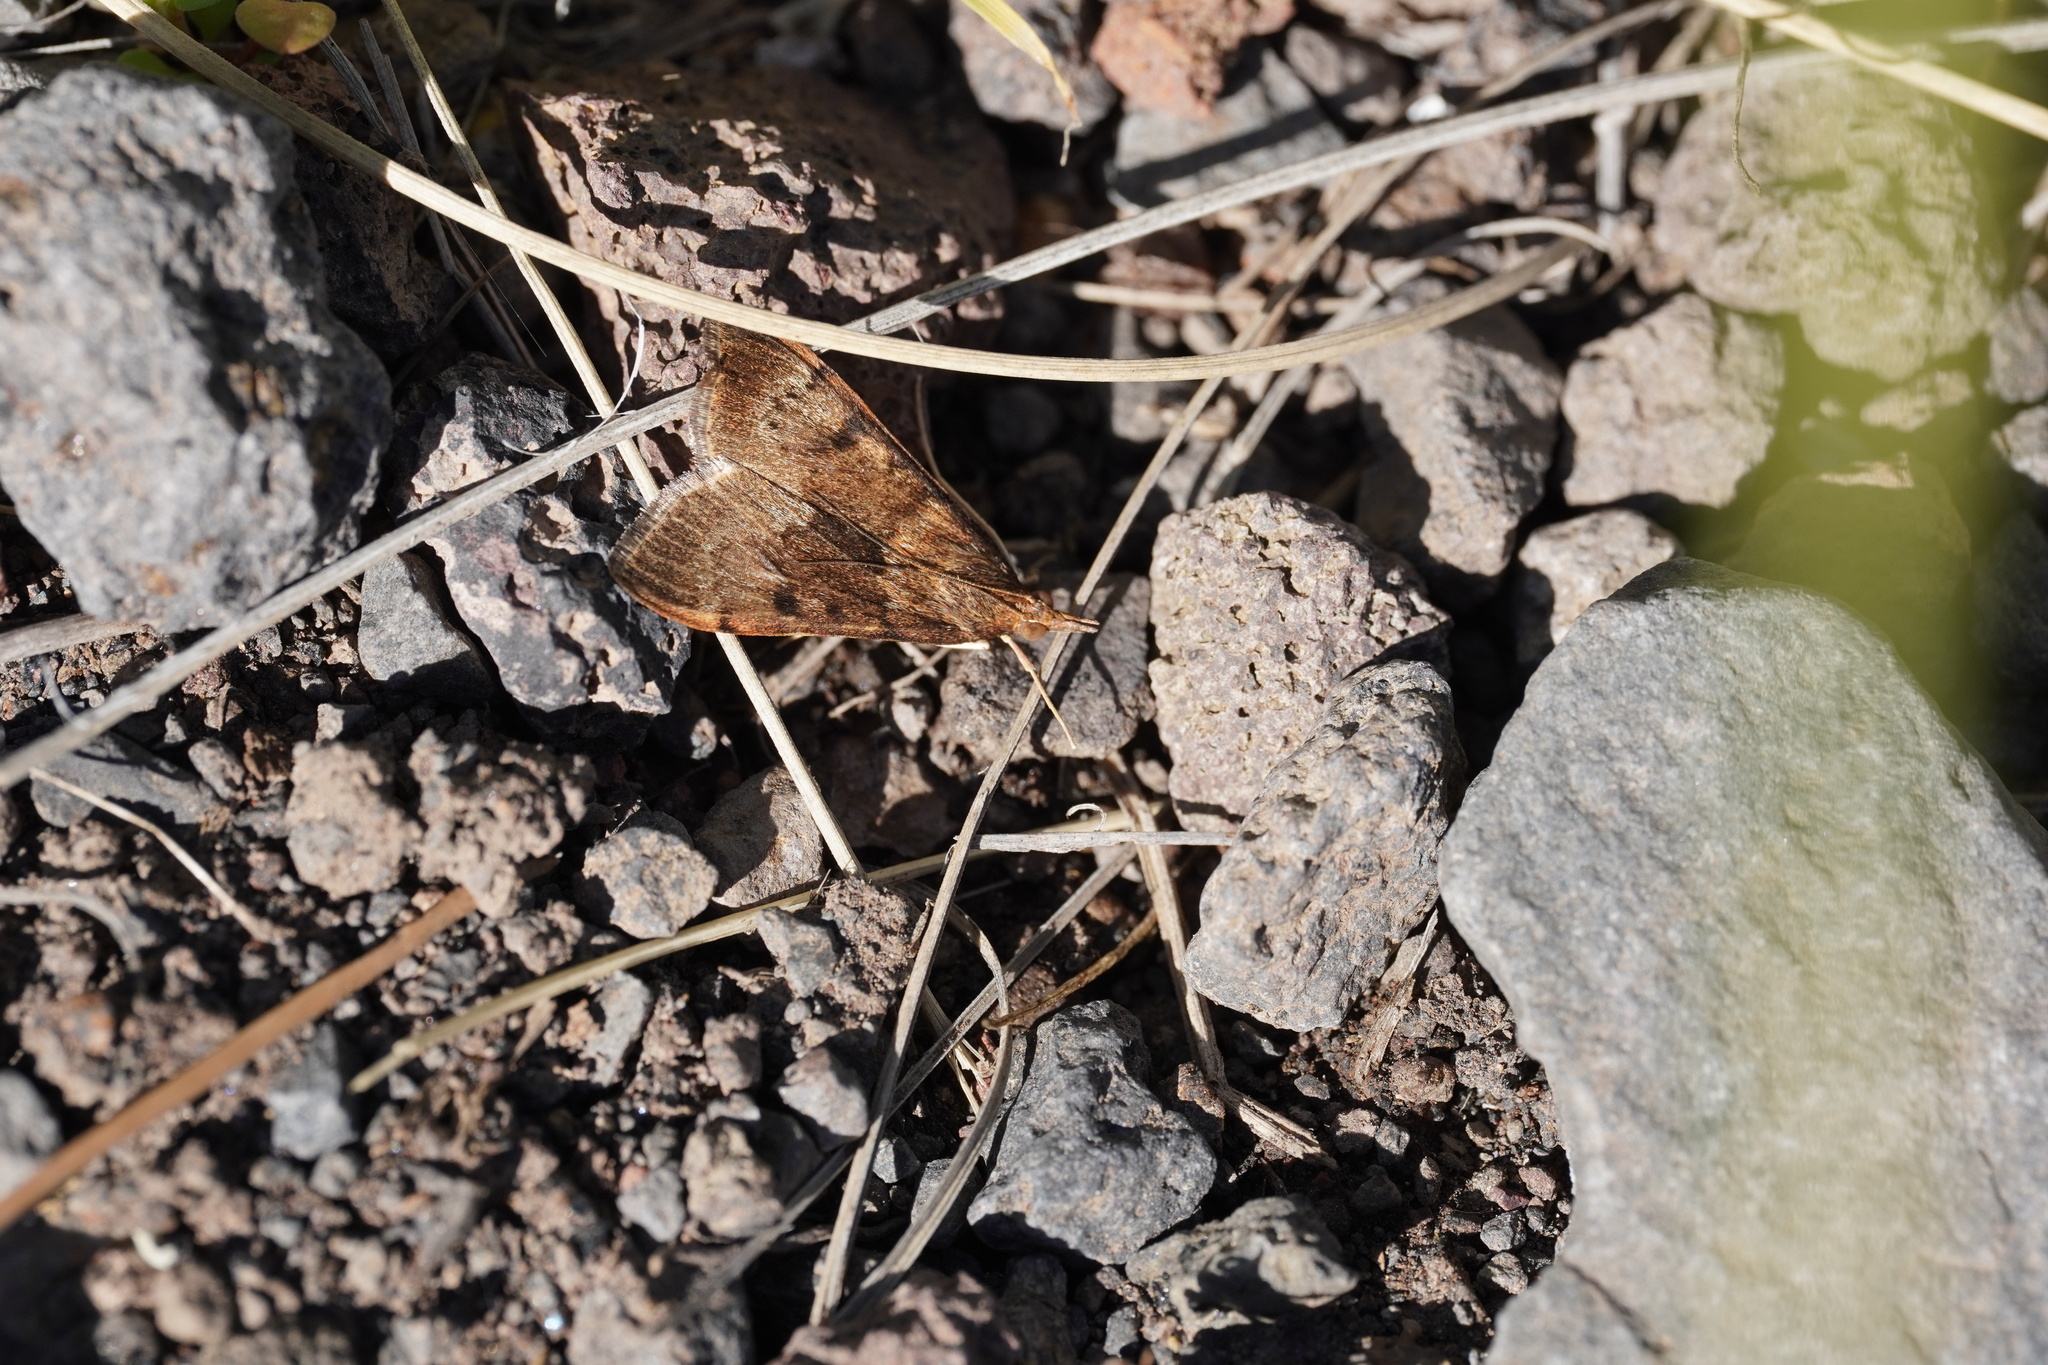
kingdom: Animalia
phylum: Arthropoda
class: Insecta
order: Lepidoptera
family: Crambidae
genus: Uresiphita
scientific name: Uresiphita gilvata
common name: Yellow-underwing pearl
